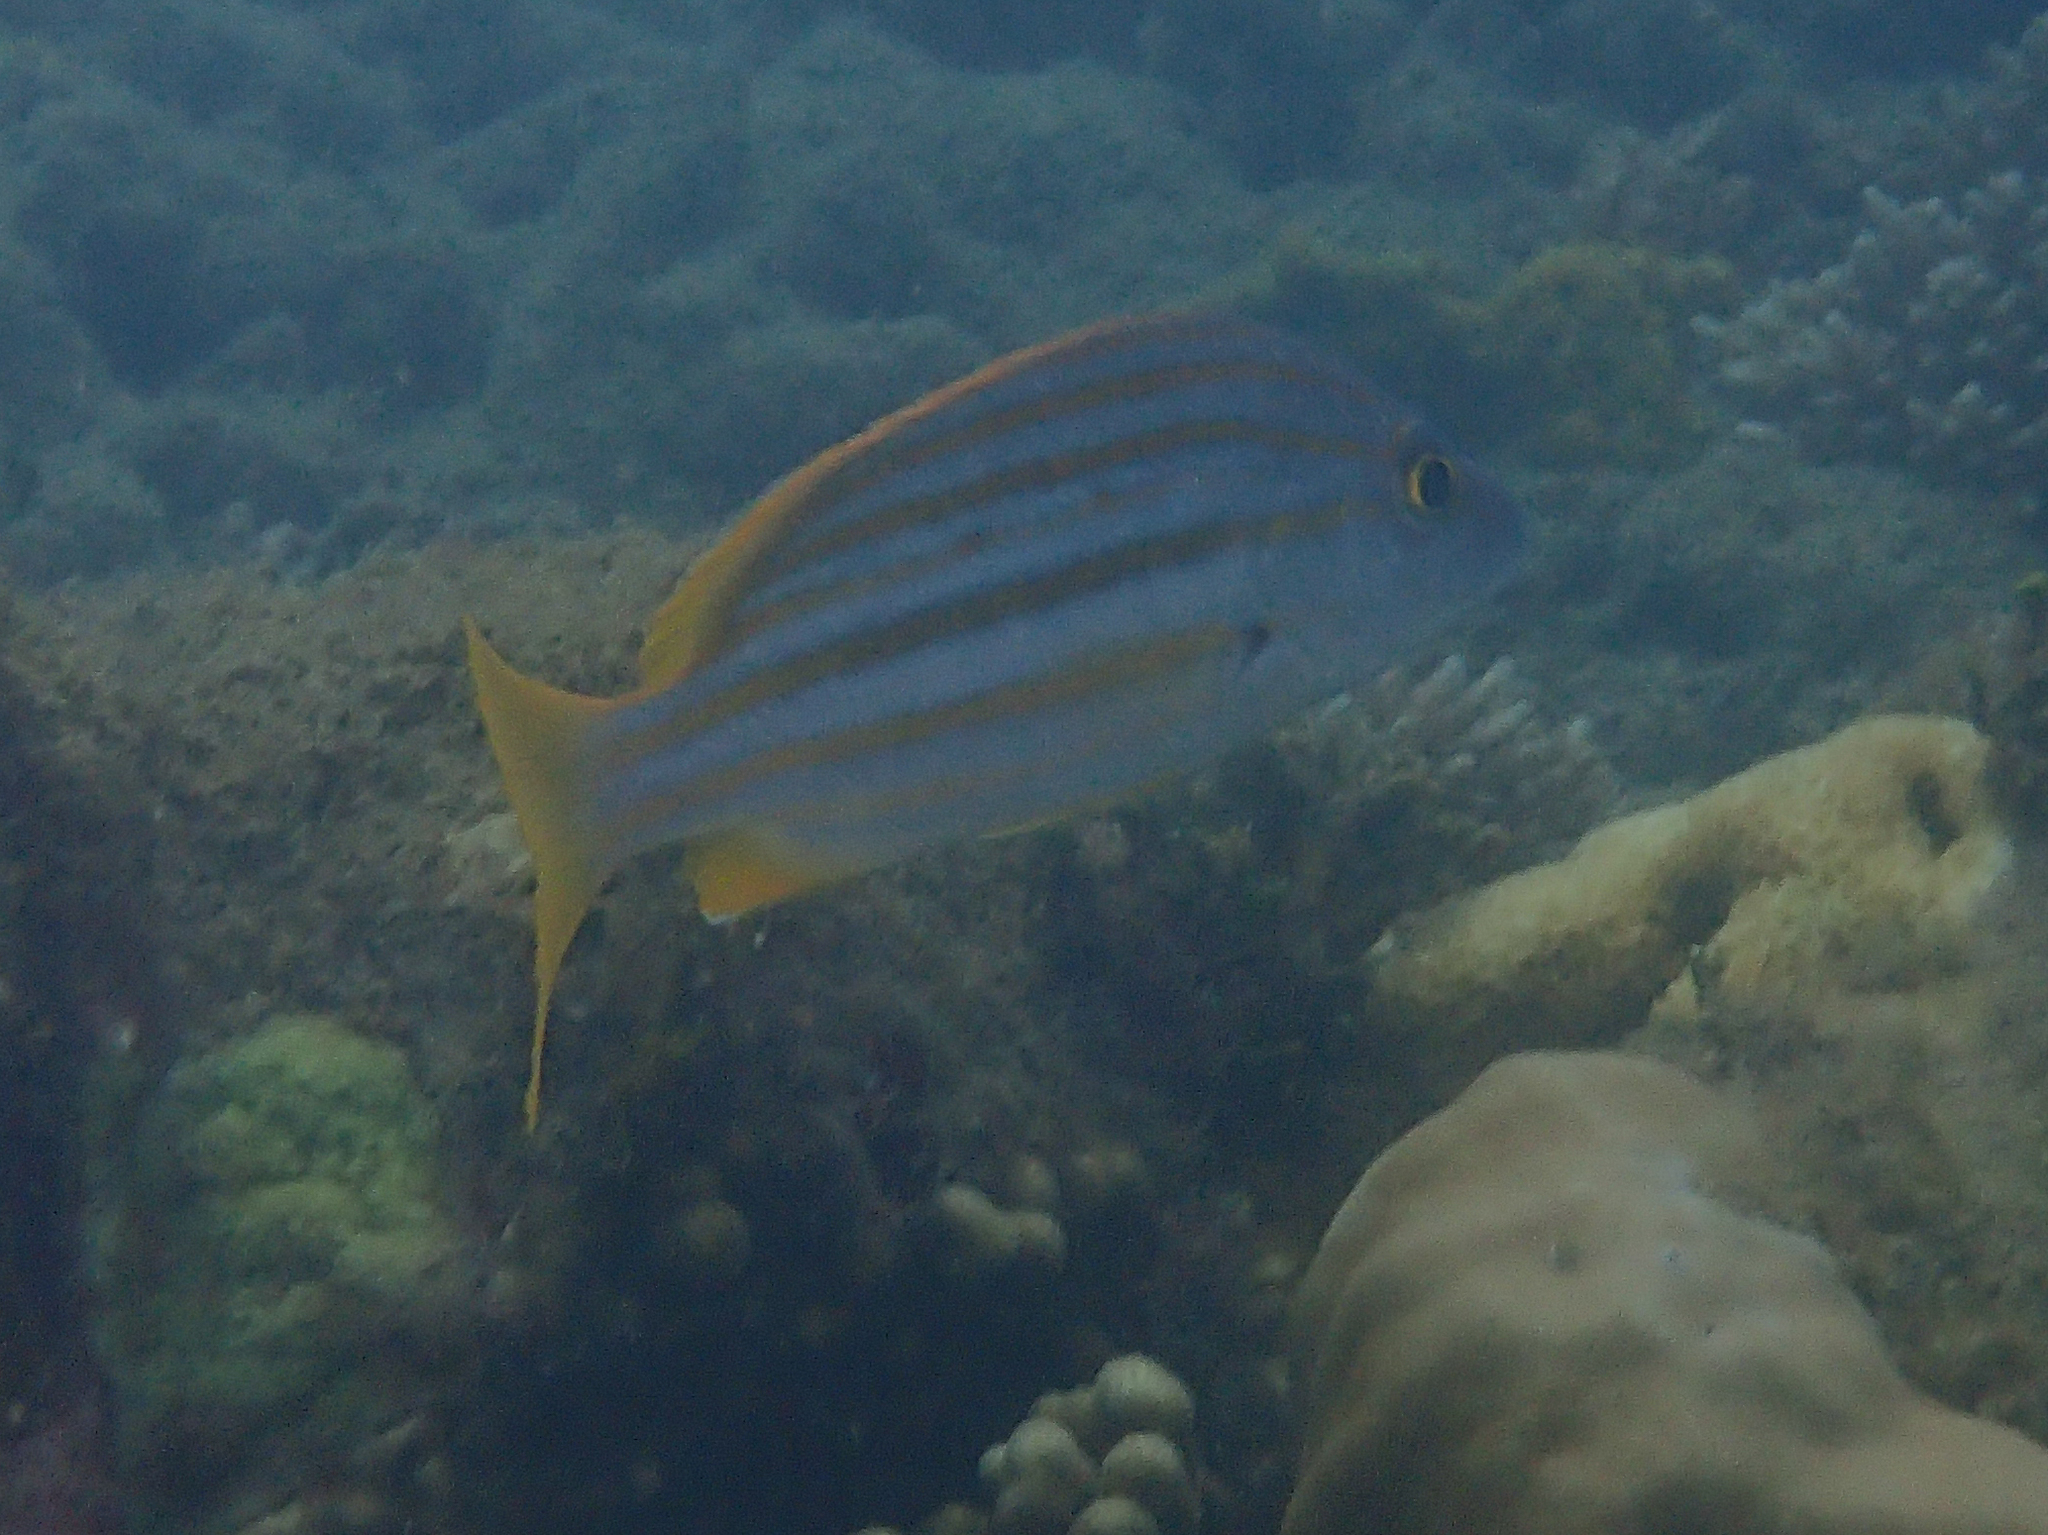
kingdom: Animalia
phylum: Chordata
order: Perciformes
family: Lutjanidae
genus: Lutjanus
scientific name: Lutjanus carponotatus
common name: Spanish flag
